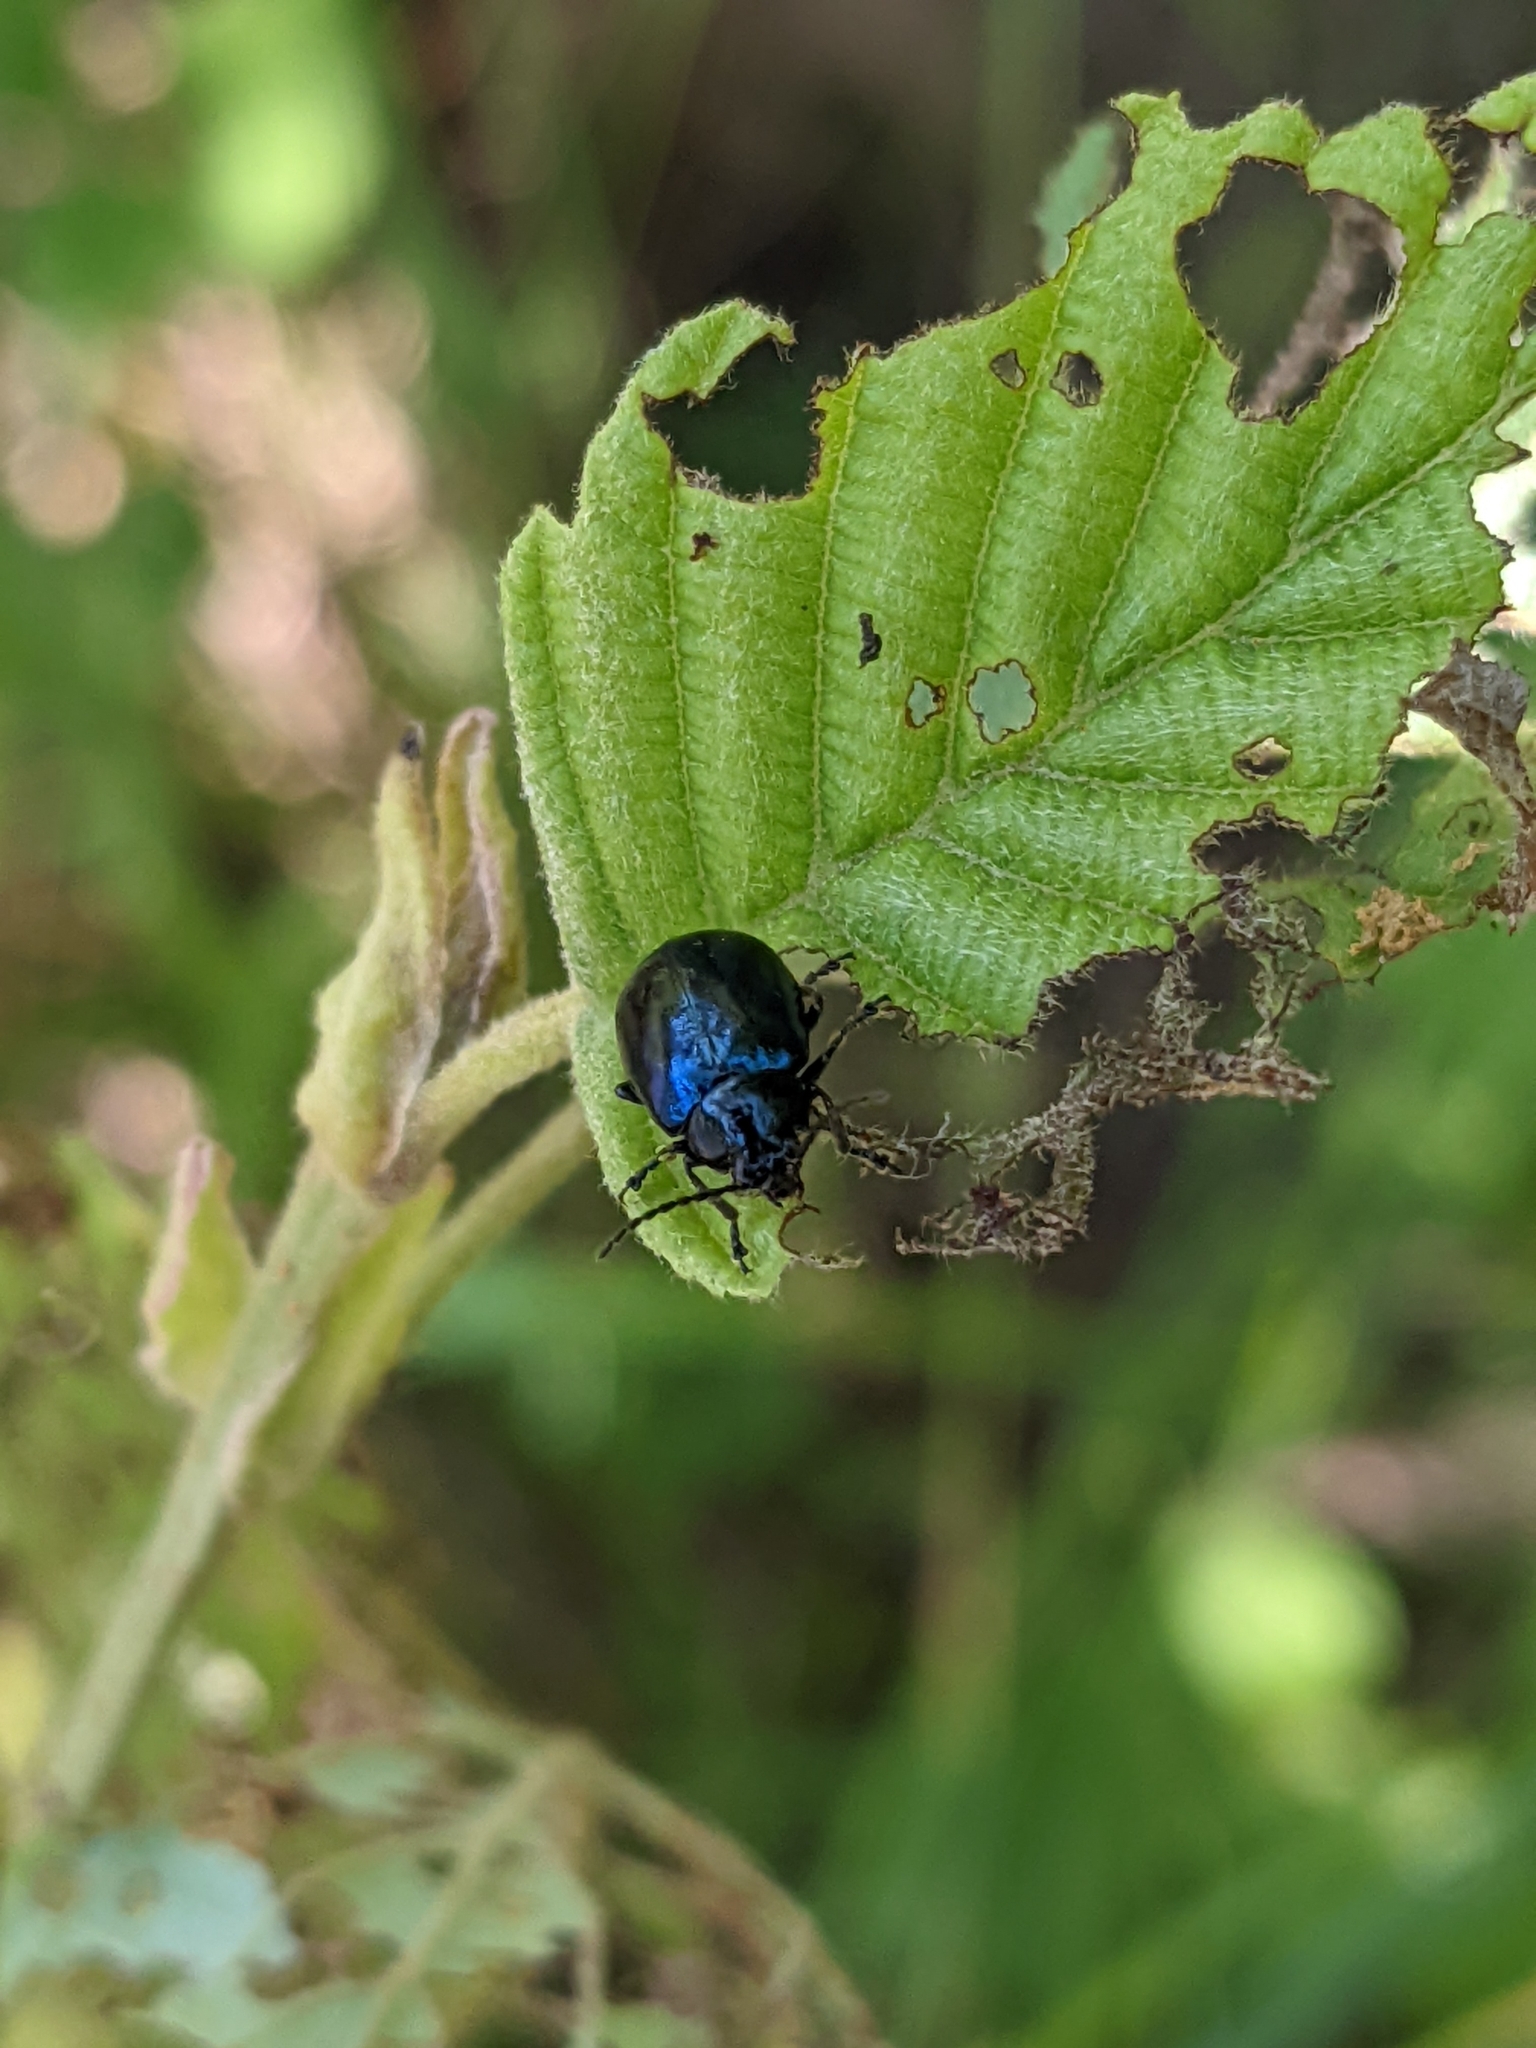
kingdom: Animalia
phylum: Arthropoda
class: Insecta
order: Coleoptera
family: Chrysomelidae
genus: Agelastica
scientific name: Agelastica alni
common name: Alder leaf beetle
